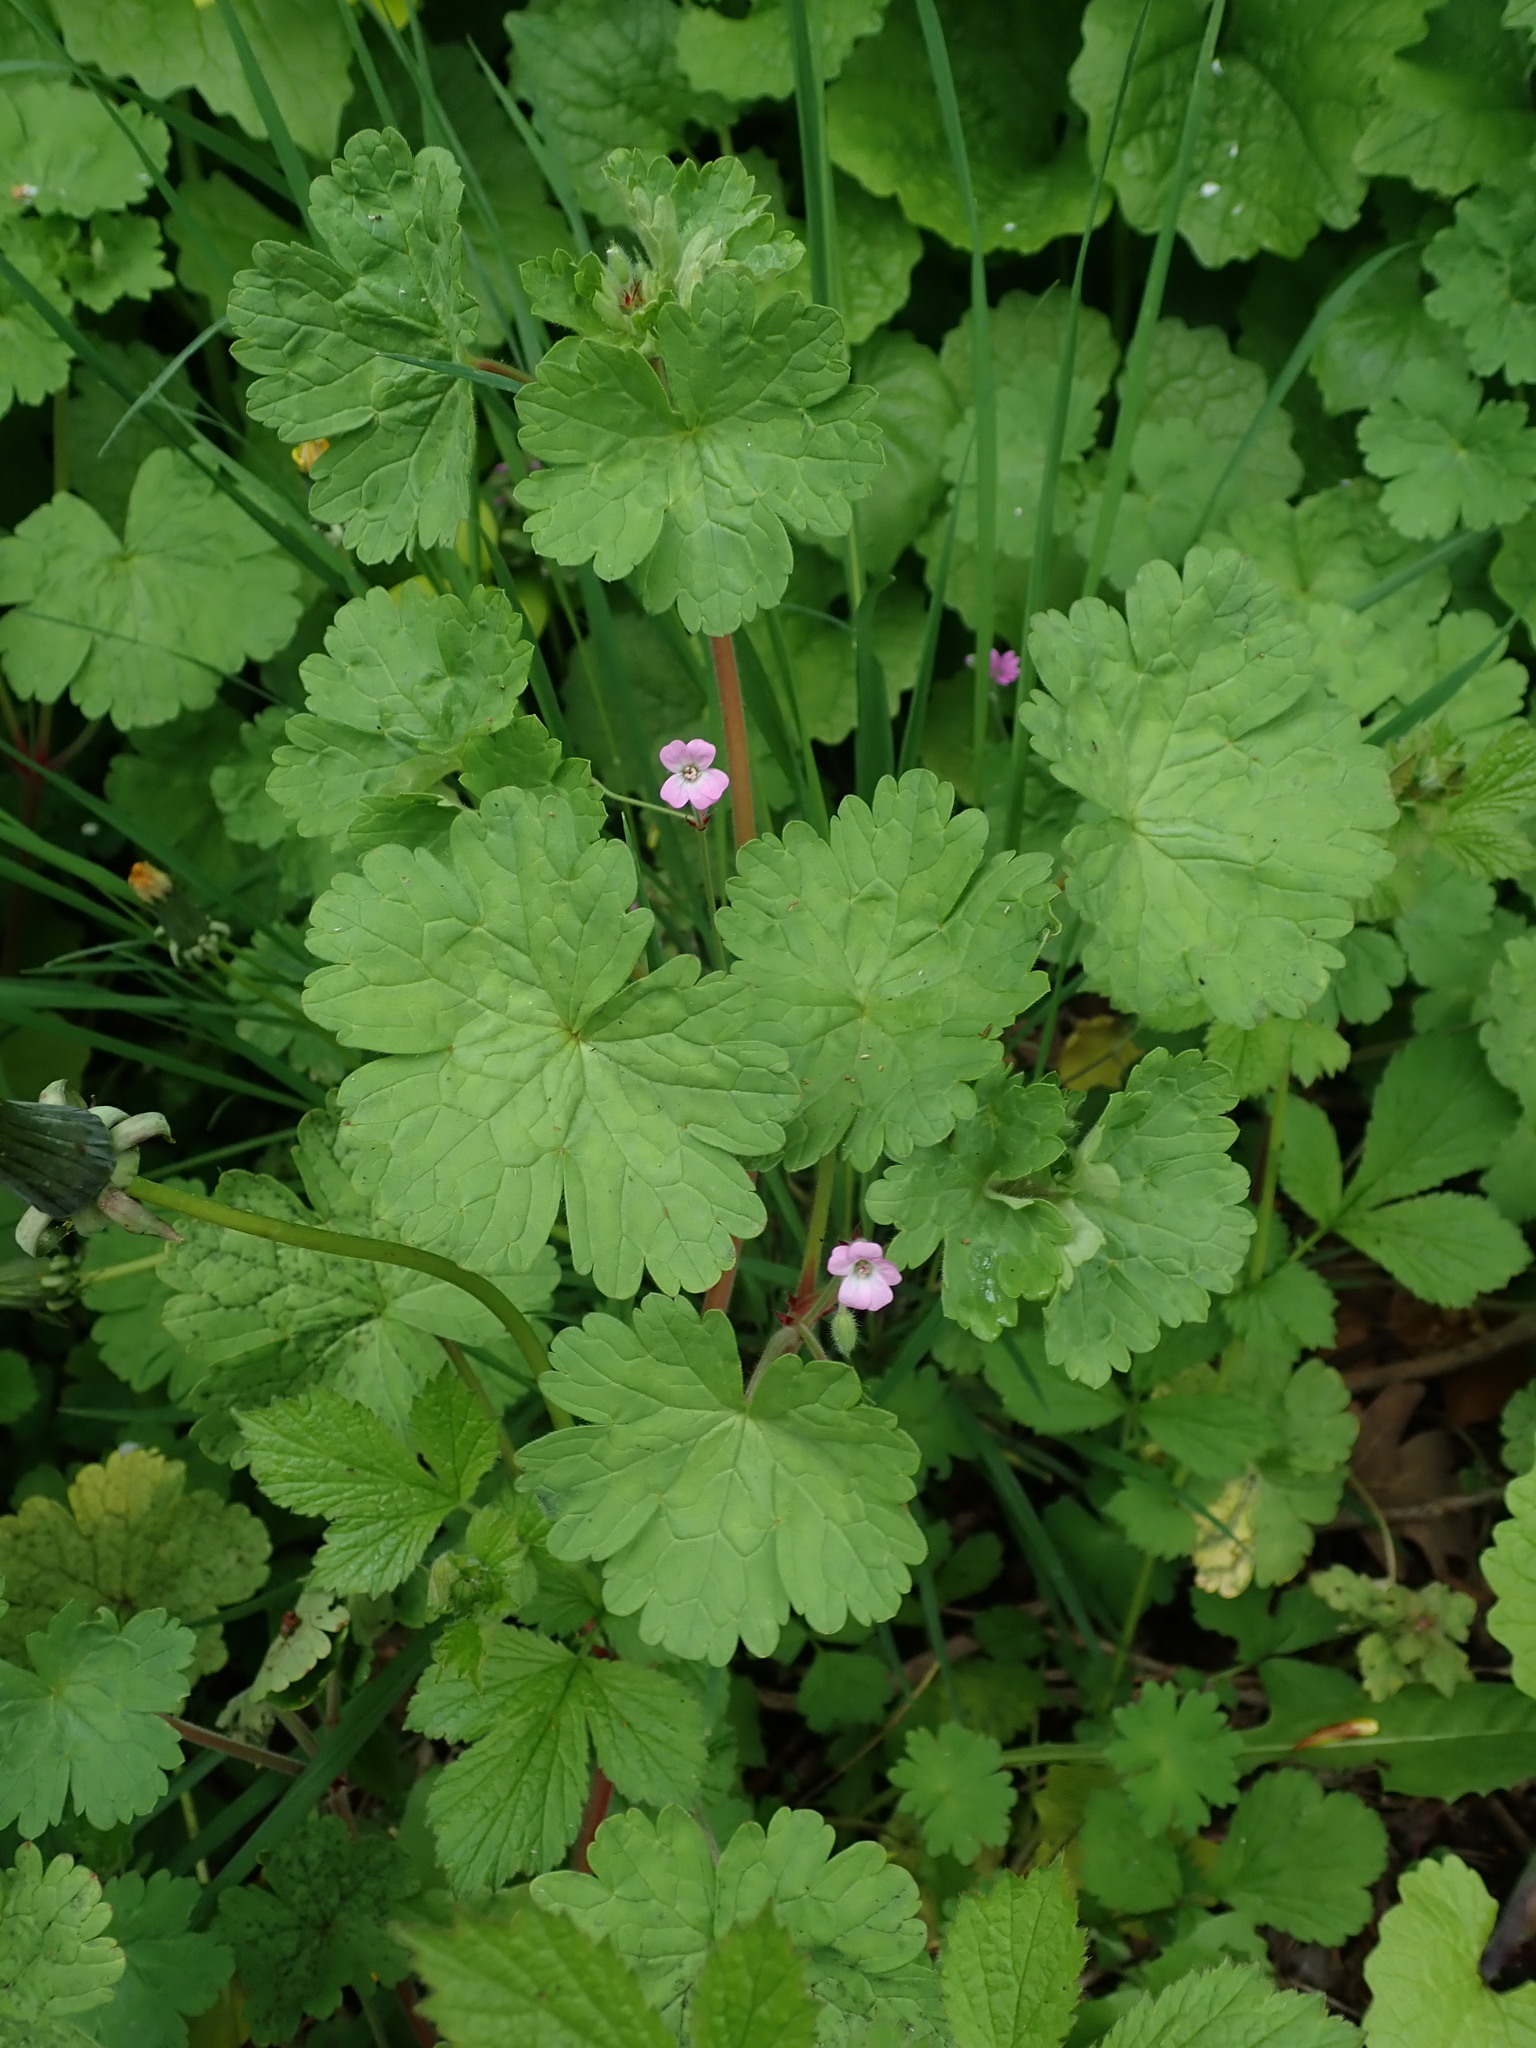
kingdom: Plantae
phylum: Tracheophyta
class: Magnoliopsida
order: Geraniales
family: Geraniaceae
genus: Geranium
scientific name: Geranium rotundifolium
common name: Round-leaved crane's-bill
